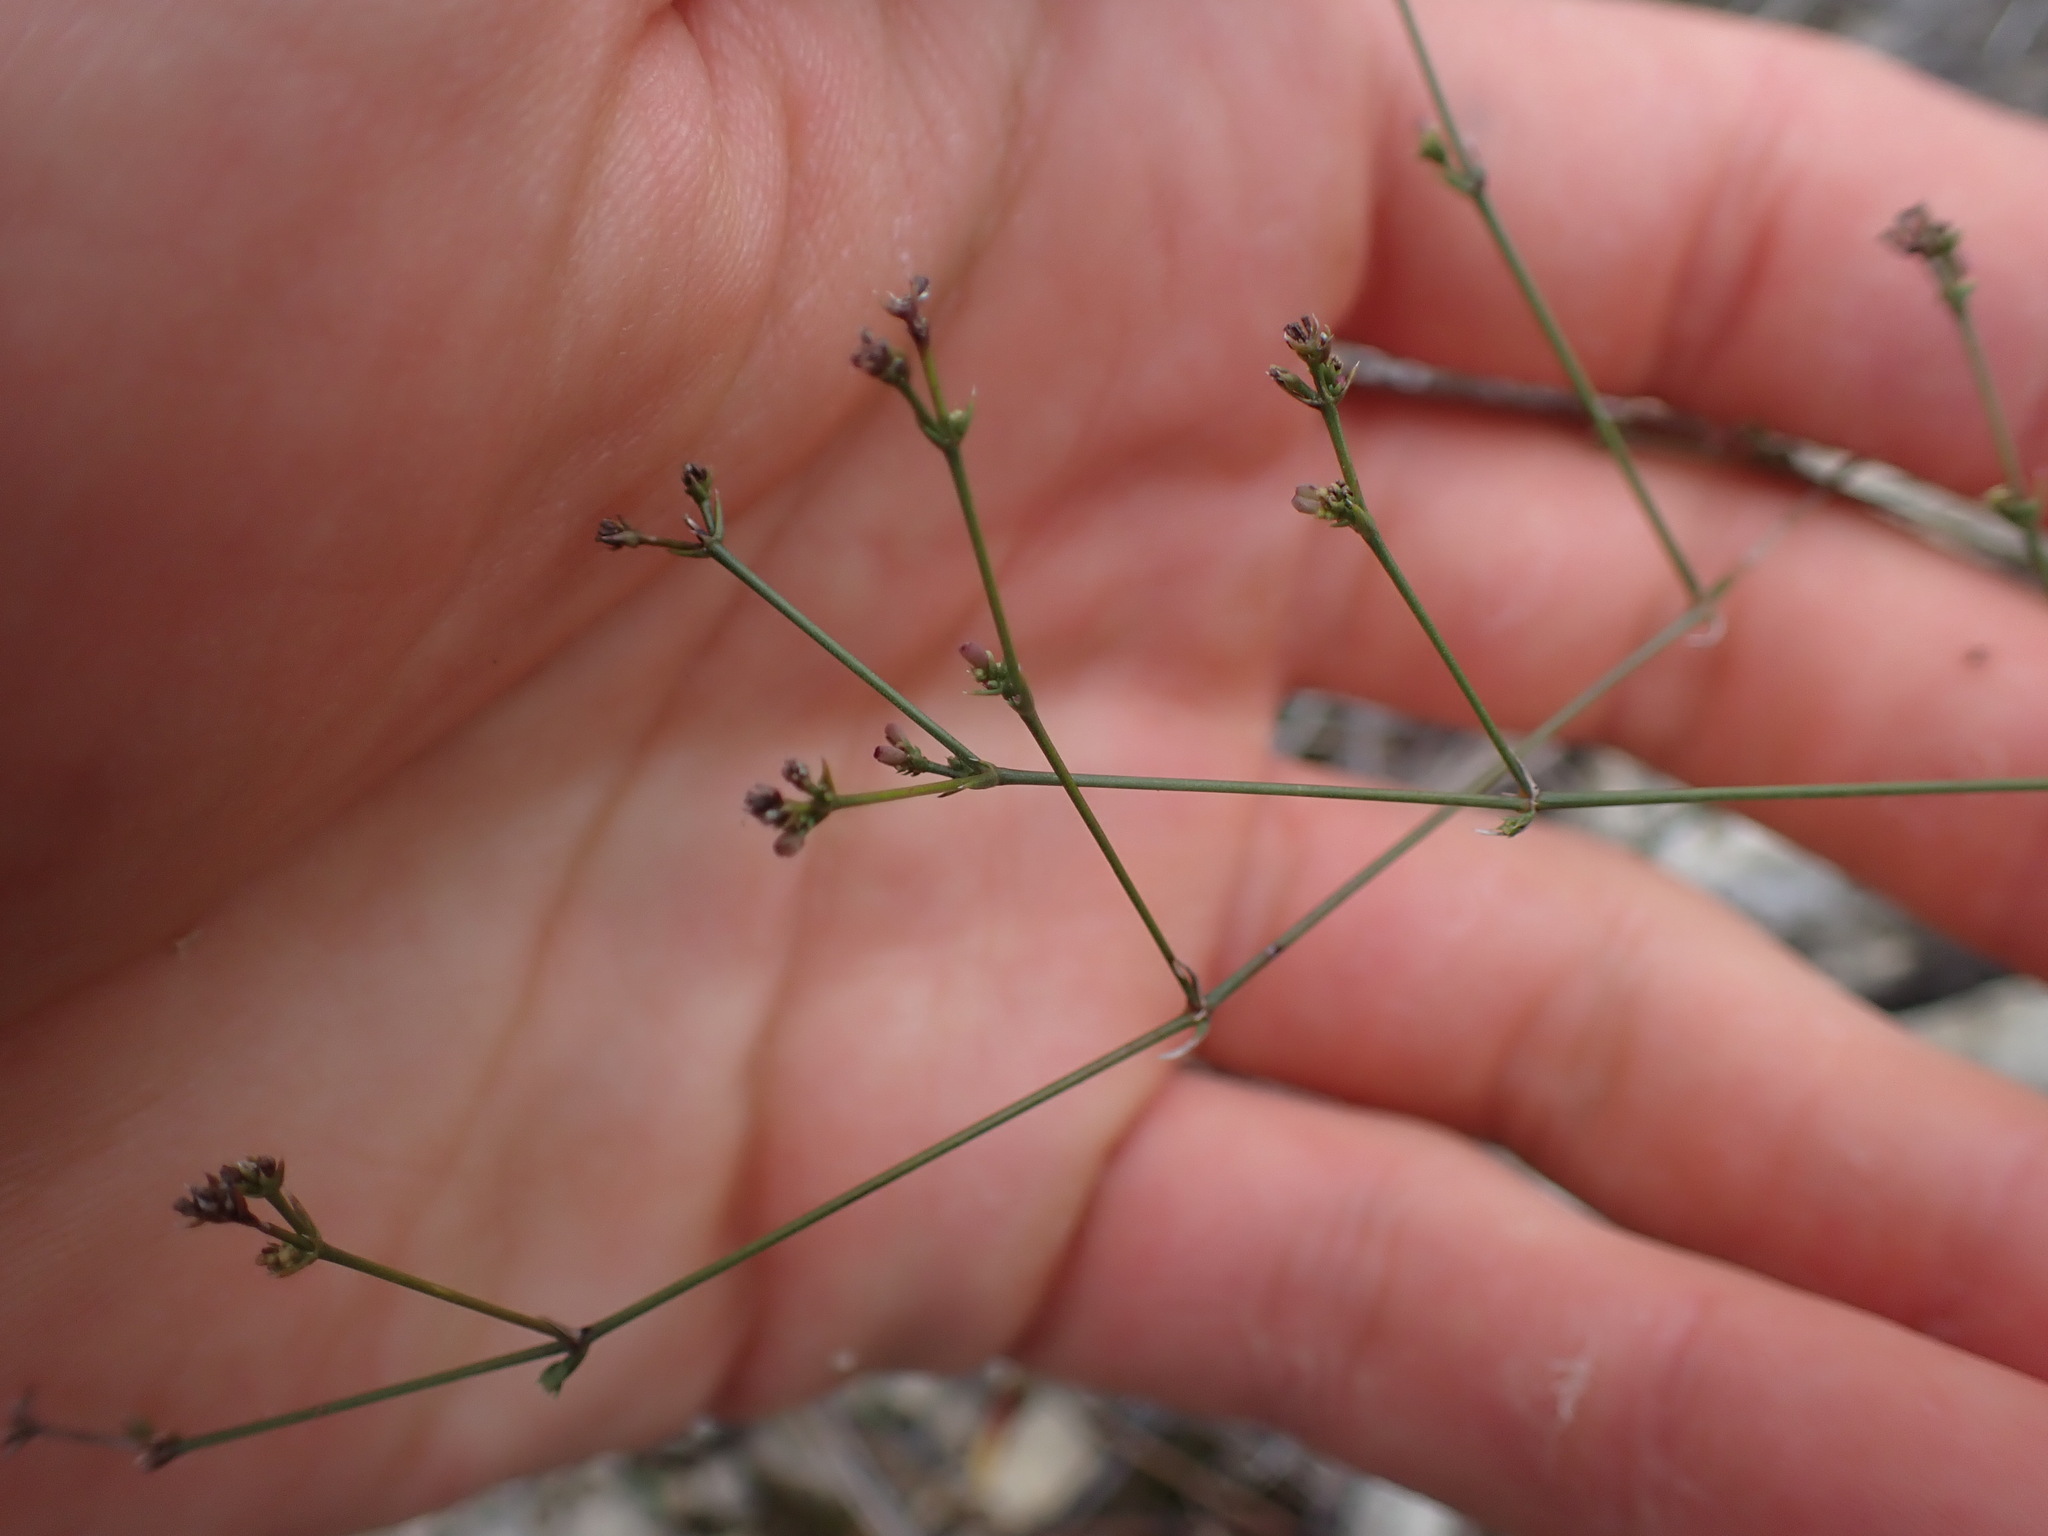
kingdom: Plantae
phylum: Tracheophyta
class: Magnoliopsida
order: Gentianales
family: Rubiaceae
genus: Cynanchica
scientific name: Cynanchica pyrenaica
